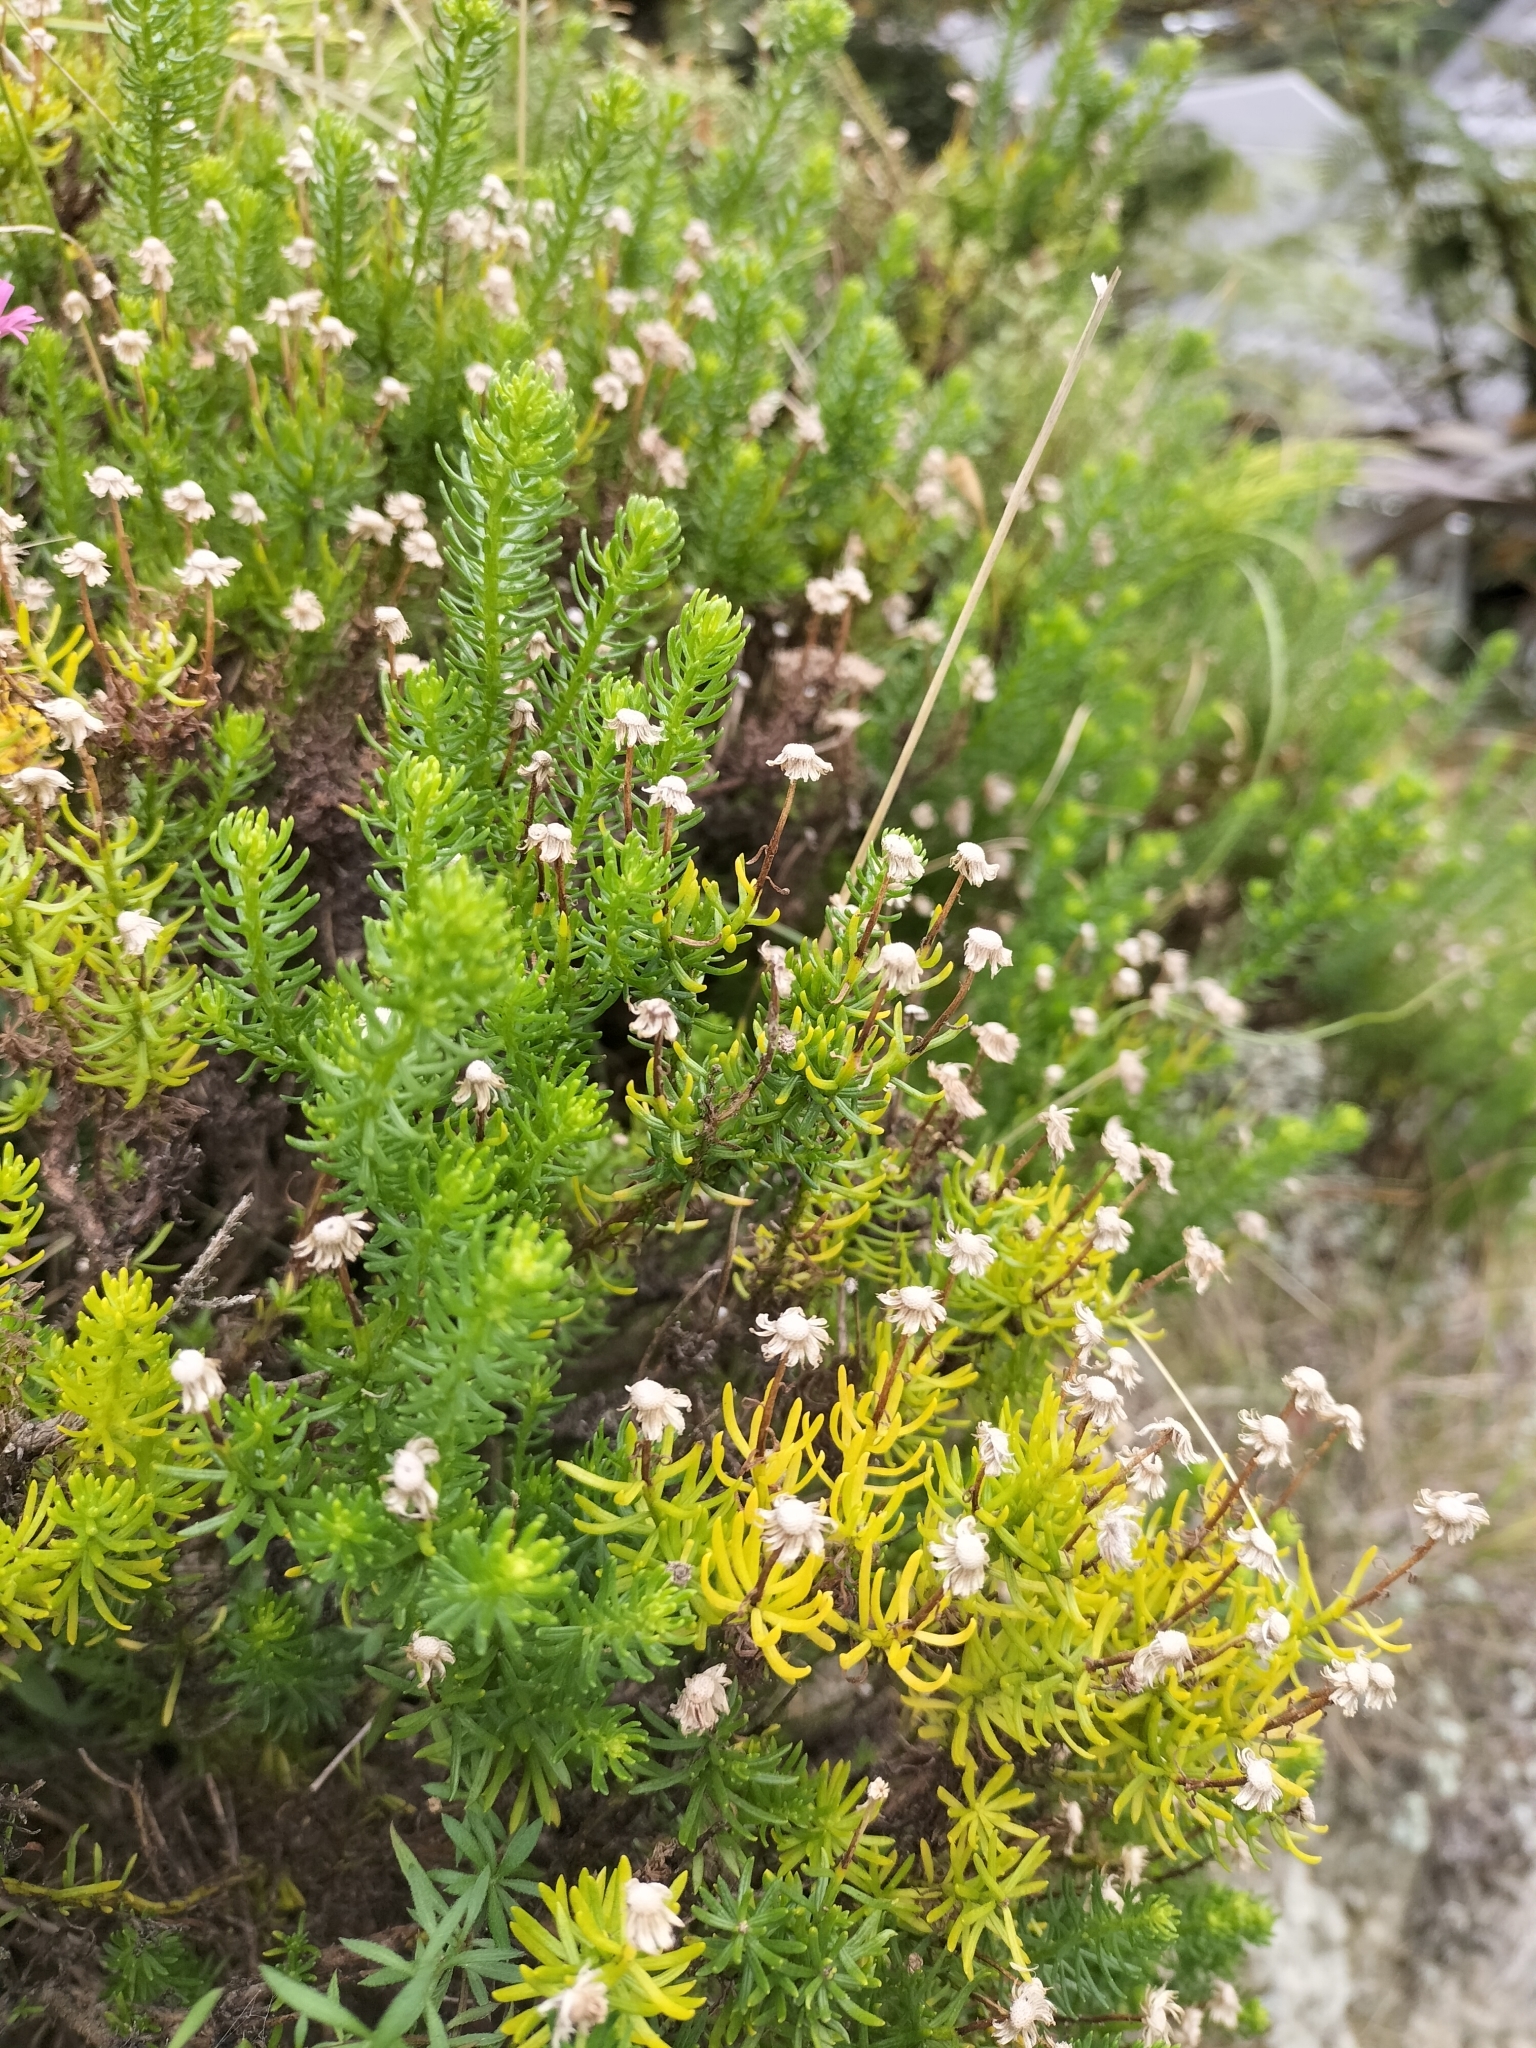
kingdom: Plantae
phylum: Tracheophyta
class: Magnoliopsida
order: Asterales
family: Asteraceae
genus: Chrysocoma
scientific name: Chrysocoma cernua
